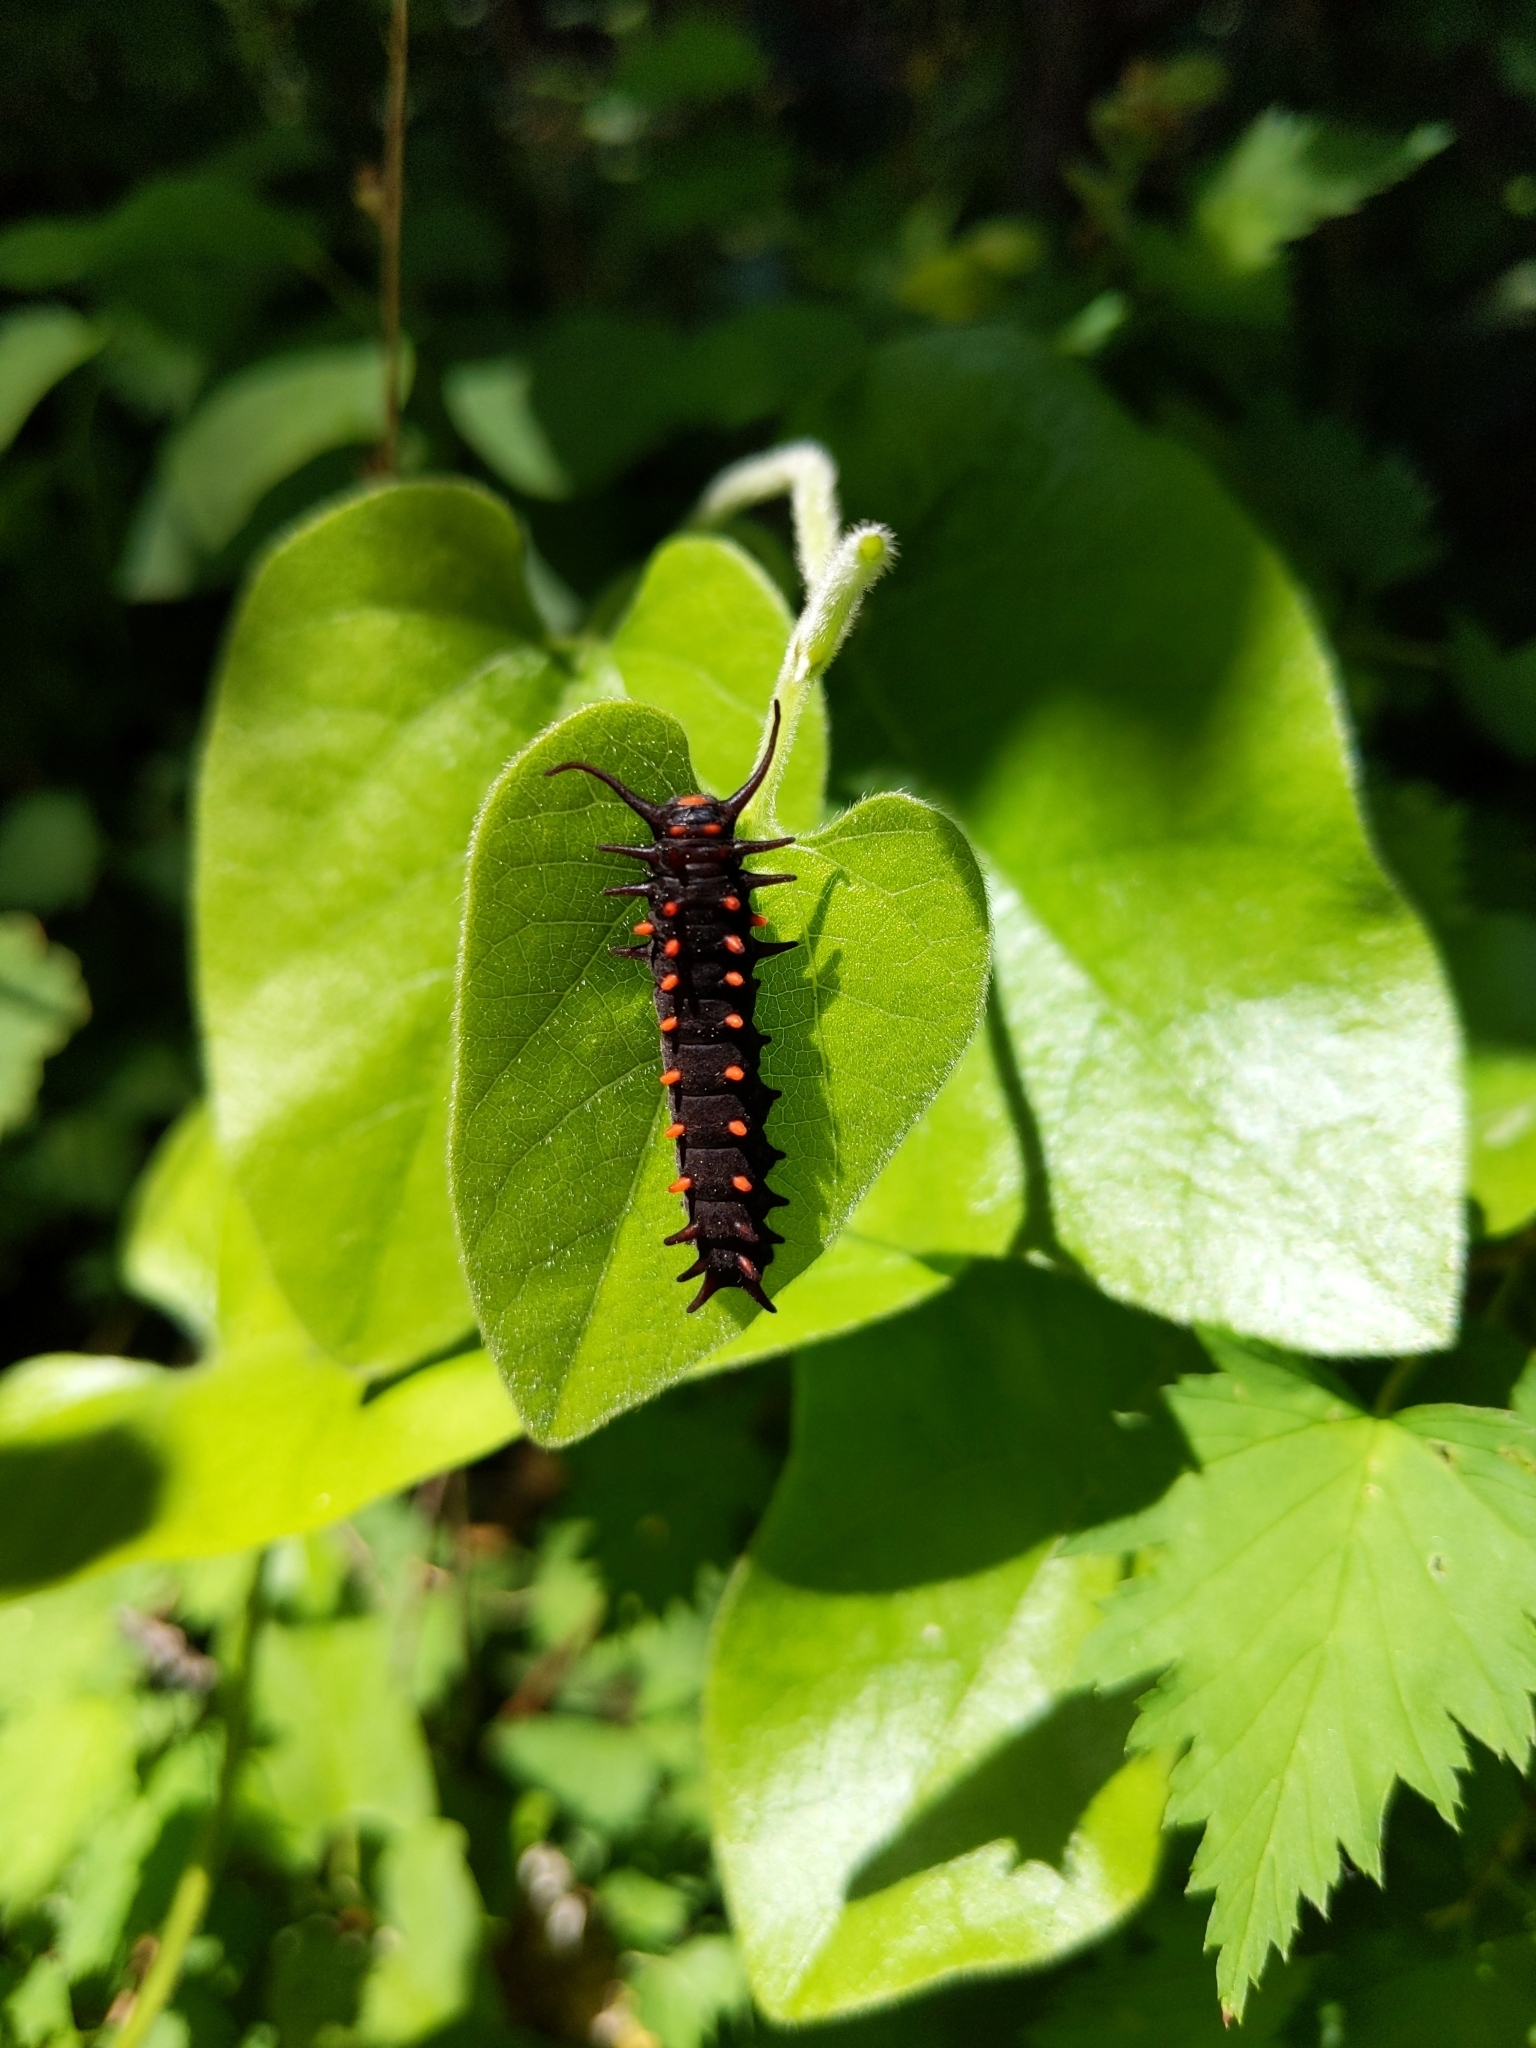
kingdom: Animalia
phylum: Arthropoda
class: Insecta
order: Lepidoptera
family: Papilionidae
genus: Battus
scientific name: Battus philenor
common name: Pipevine swallowtail
